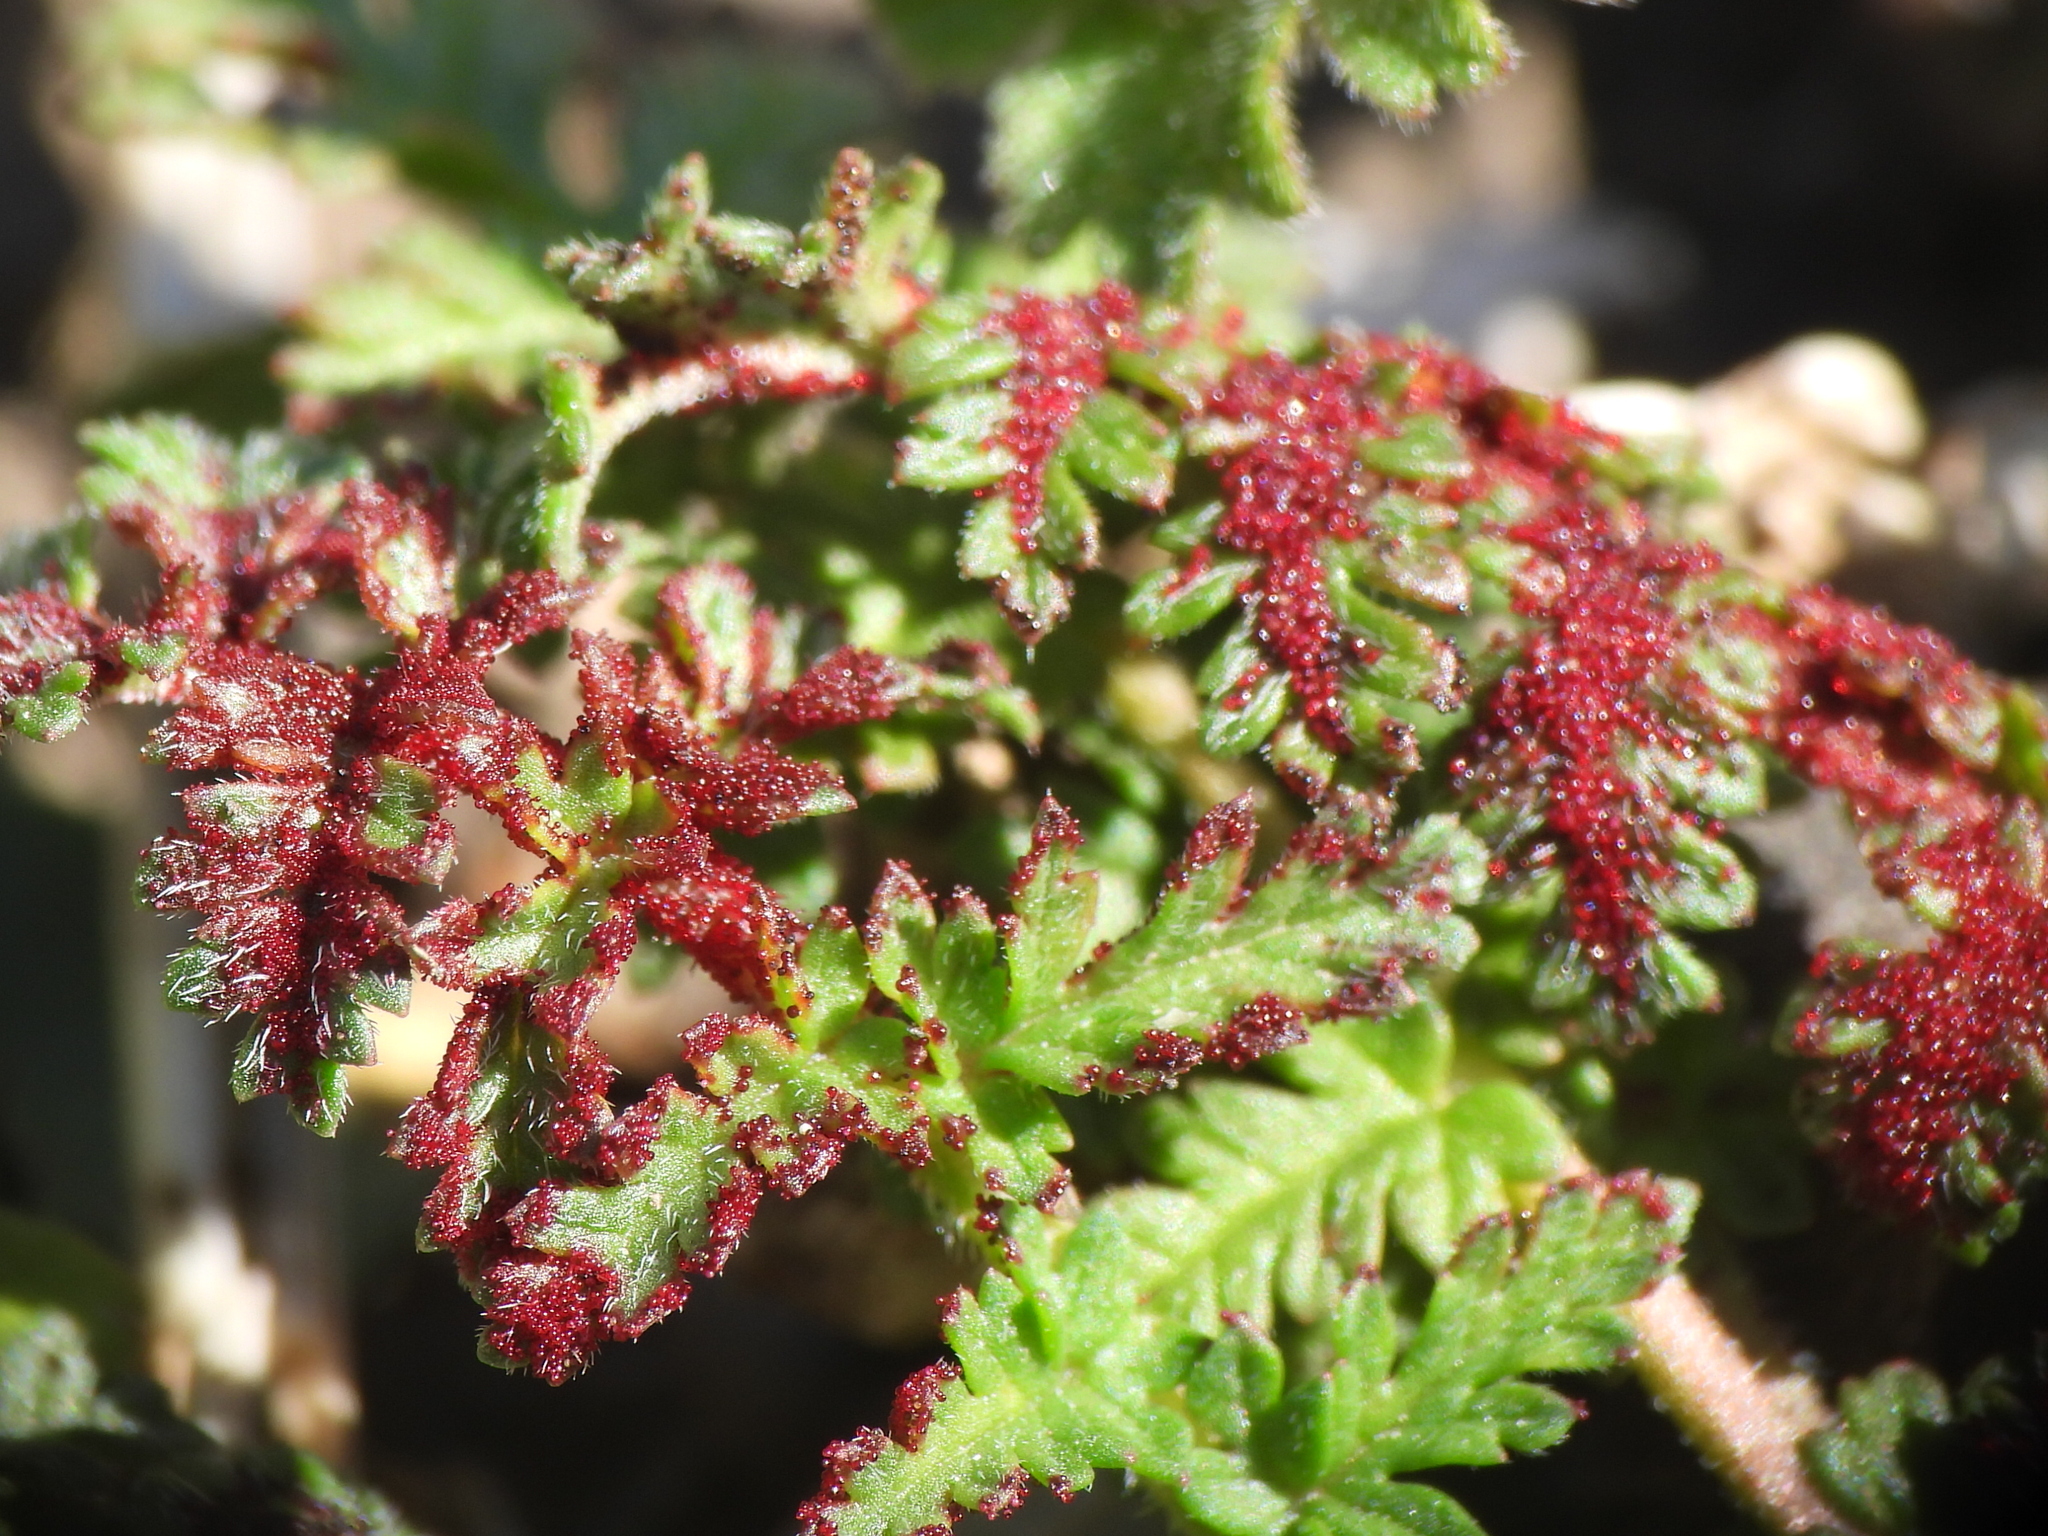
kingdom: Fungi
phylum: Chytridiomycota
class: Chytridiomycetes
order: Chytridiales
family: Synchytriaceae
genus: Synchytrium
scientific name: Synchytrium papillatum
